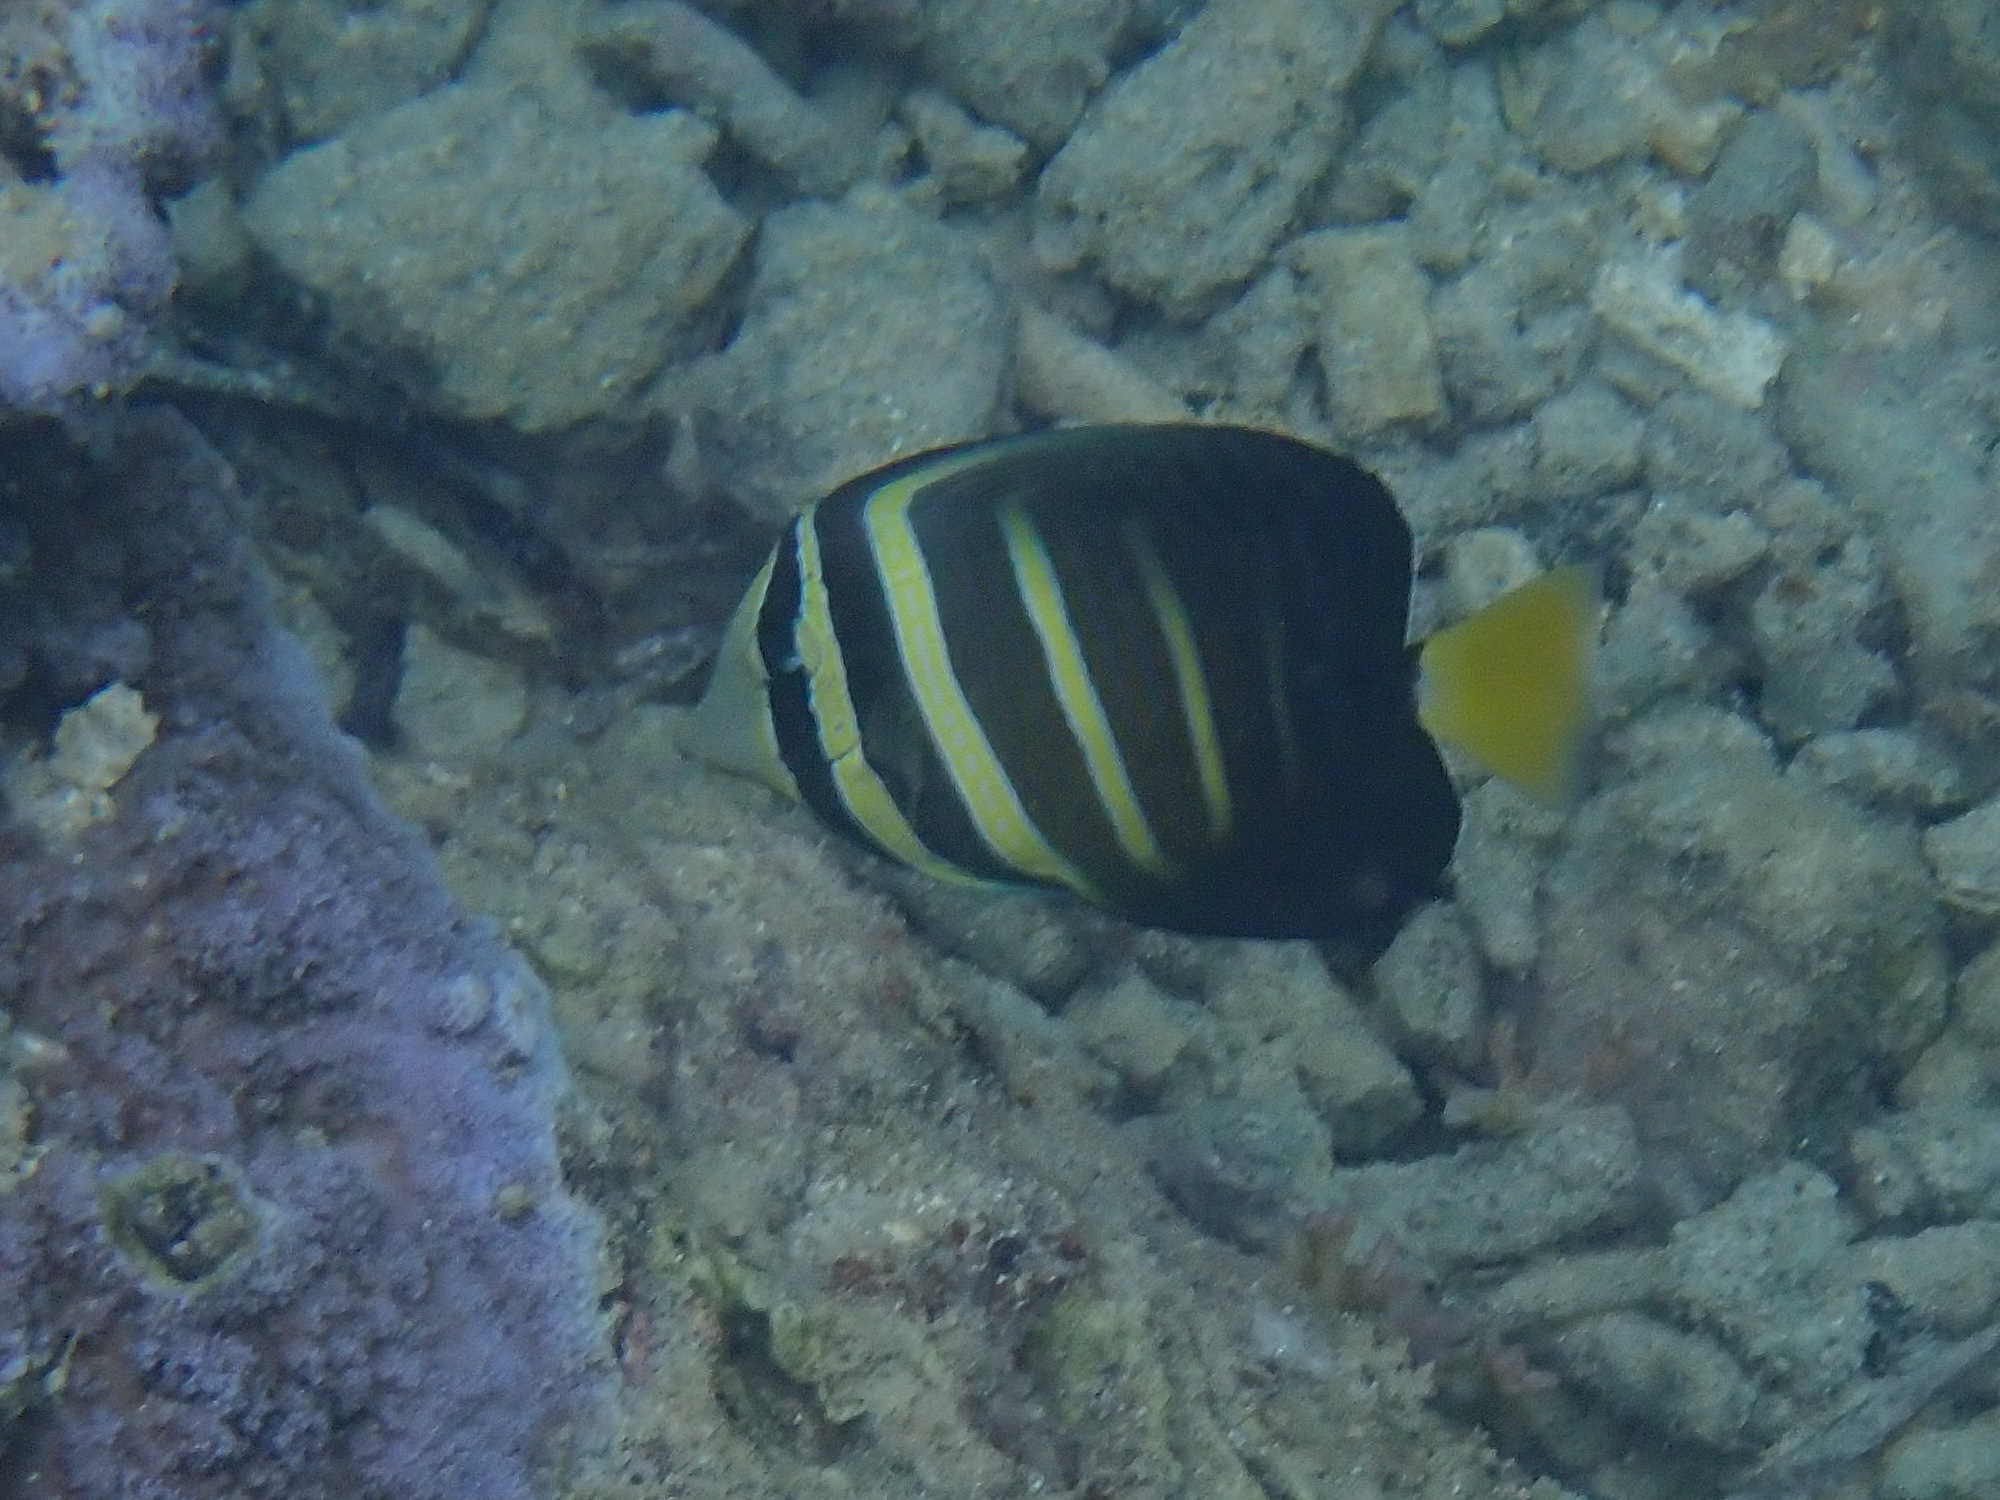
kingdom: Animalia
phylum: Chordata
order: Perciformes
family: Acanthuridae
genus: Zebrasoma
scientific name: Zebrasoma veliferum
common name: Sailfin surgeonfish
